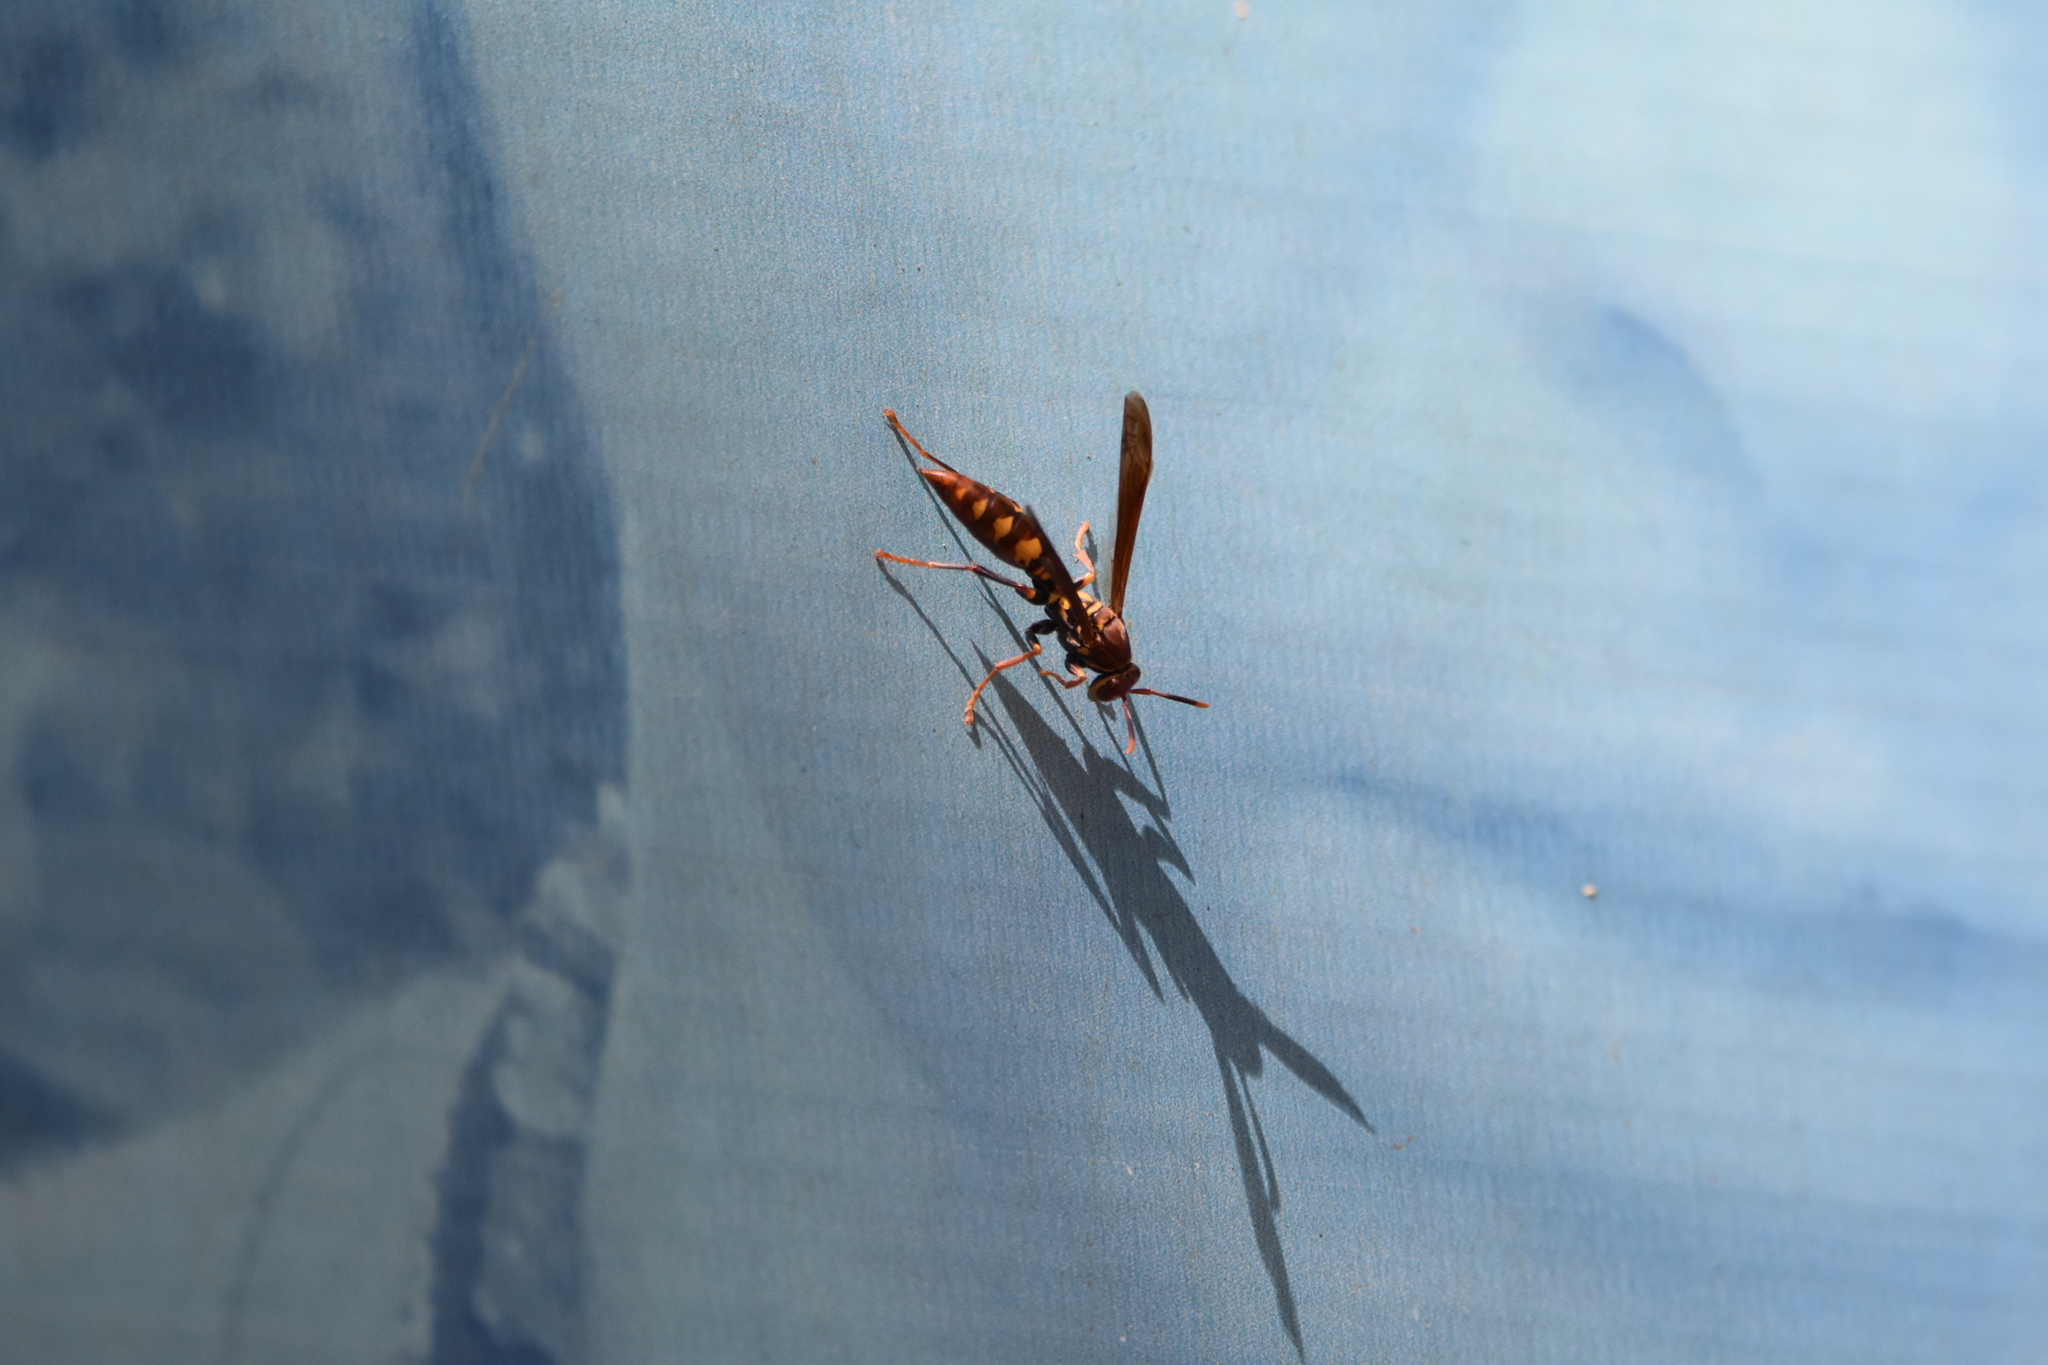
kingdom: Animalia
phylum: Arthropoda
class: Insecta
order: Hymenoptera
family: Eumenidae
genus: Polistes
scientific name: Polistes versicolor
